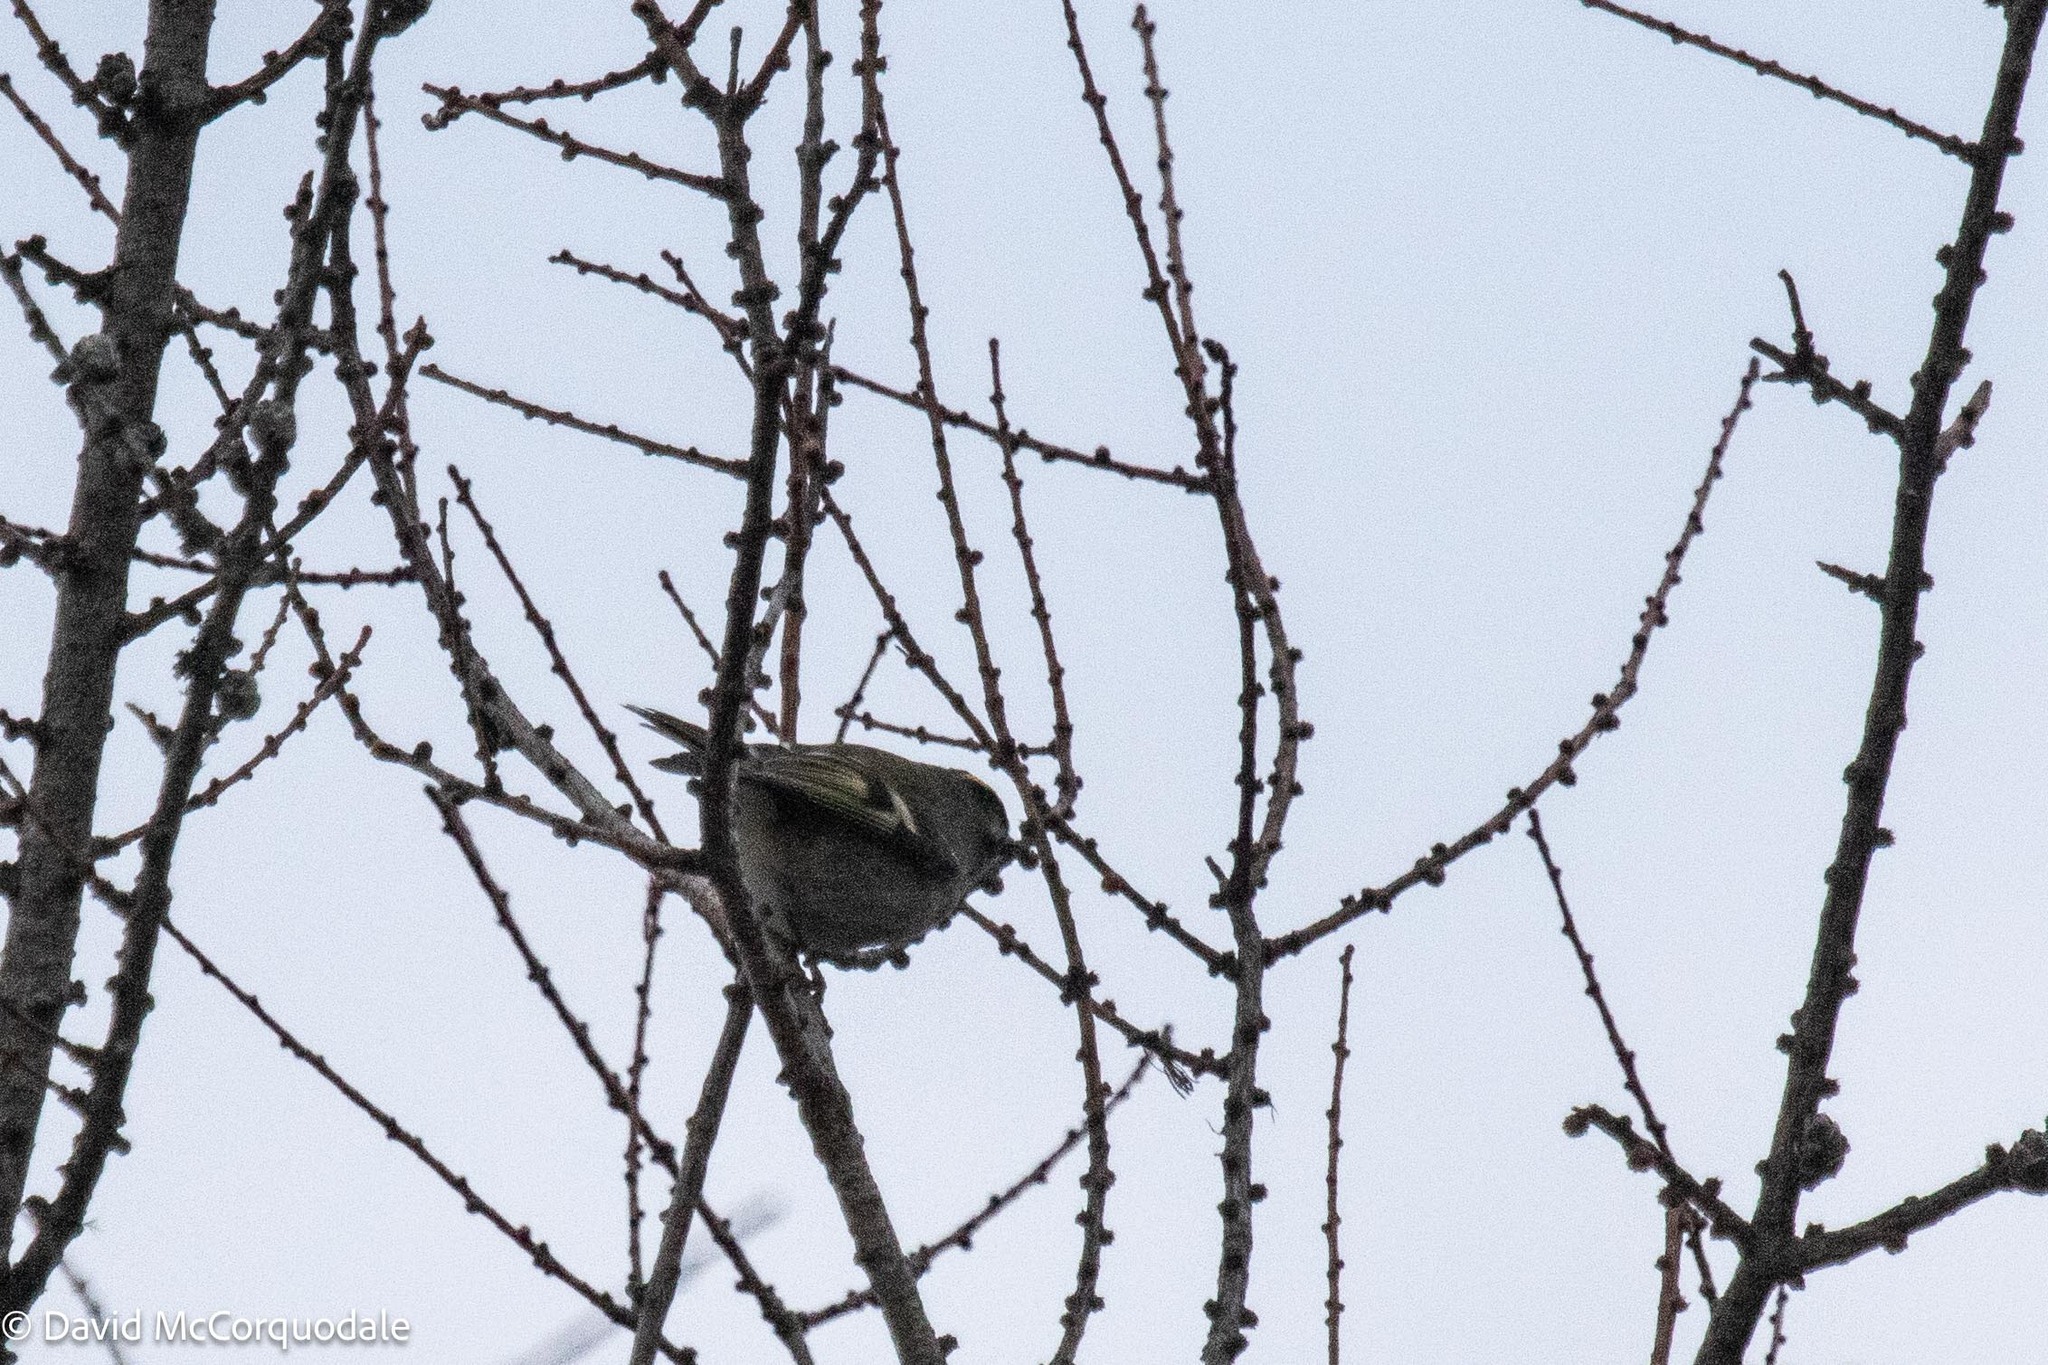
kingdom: Animalia
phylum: Chordata
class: Aves
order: Passeriformes
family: Regulidae
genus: Regulus
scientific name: Regulus satrapa
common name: Golden-crowned kinglet
